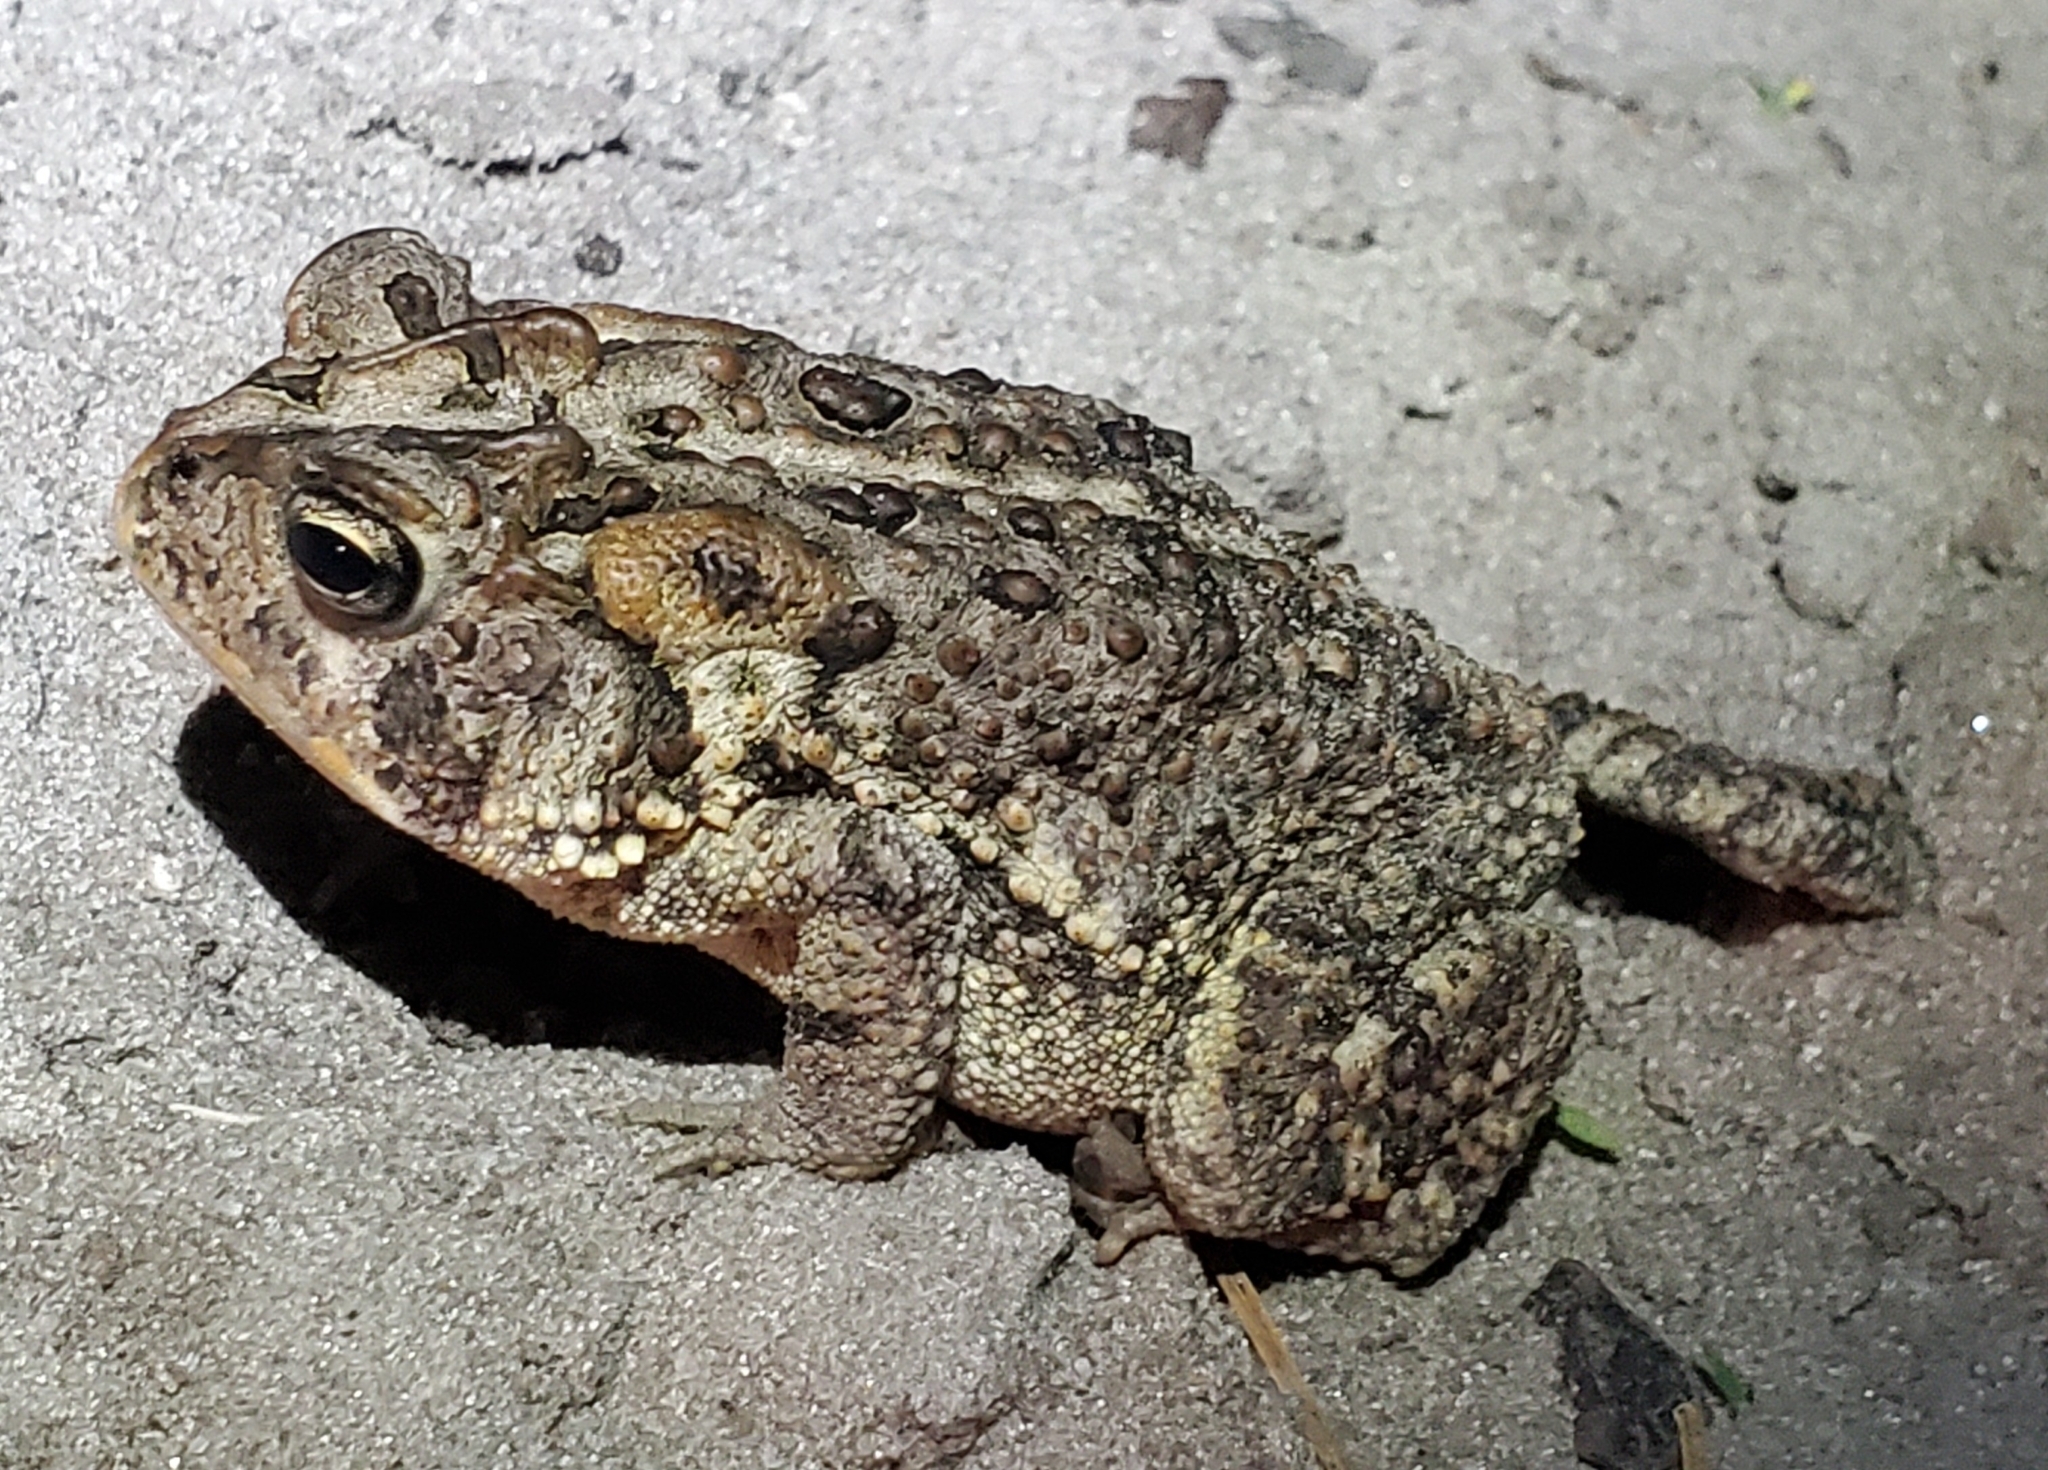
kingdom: Animalia
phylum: Chordata
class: Amphibia
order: Anura
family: Bufonidae
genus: Anaxyrus
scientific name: Anaxyrus terrestris
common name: Southern toad
